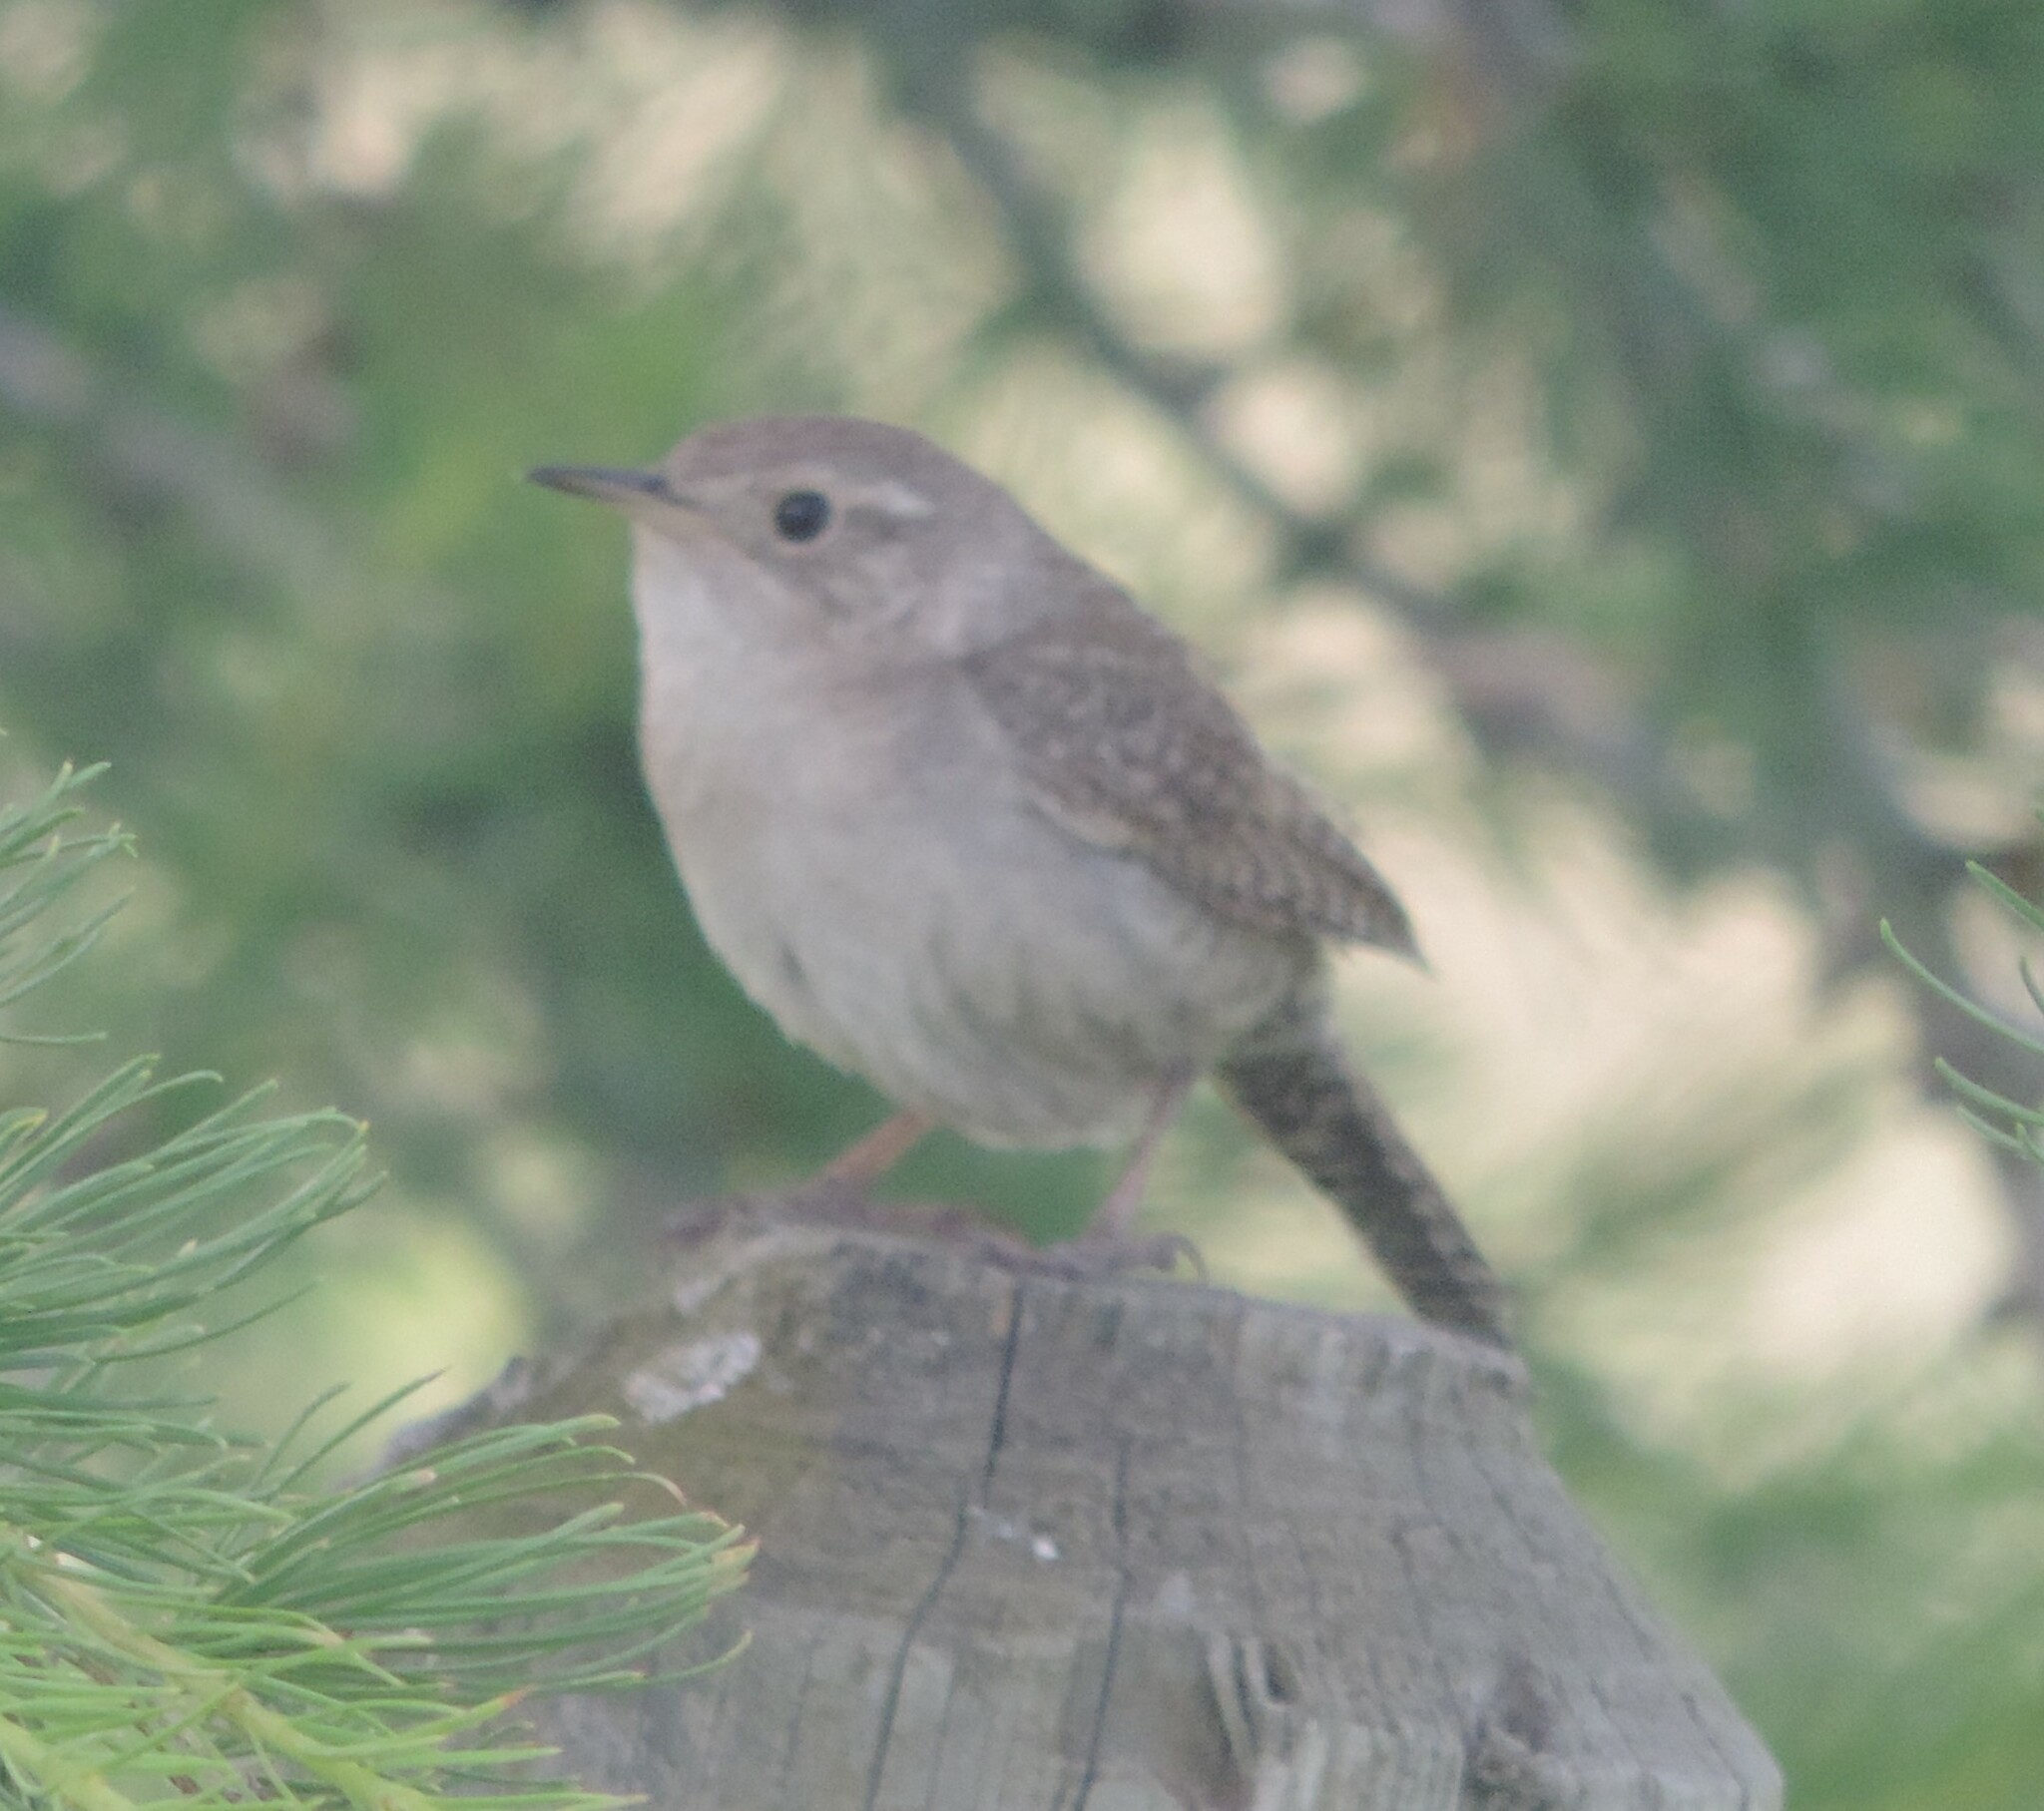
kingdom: Animalia
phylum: Chordata
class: Aves
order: Passeriformes
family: Troglodytidae
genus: Troglodytes
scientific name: Troglodytes aedon
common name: House wren
